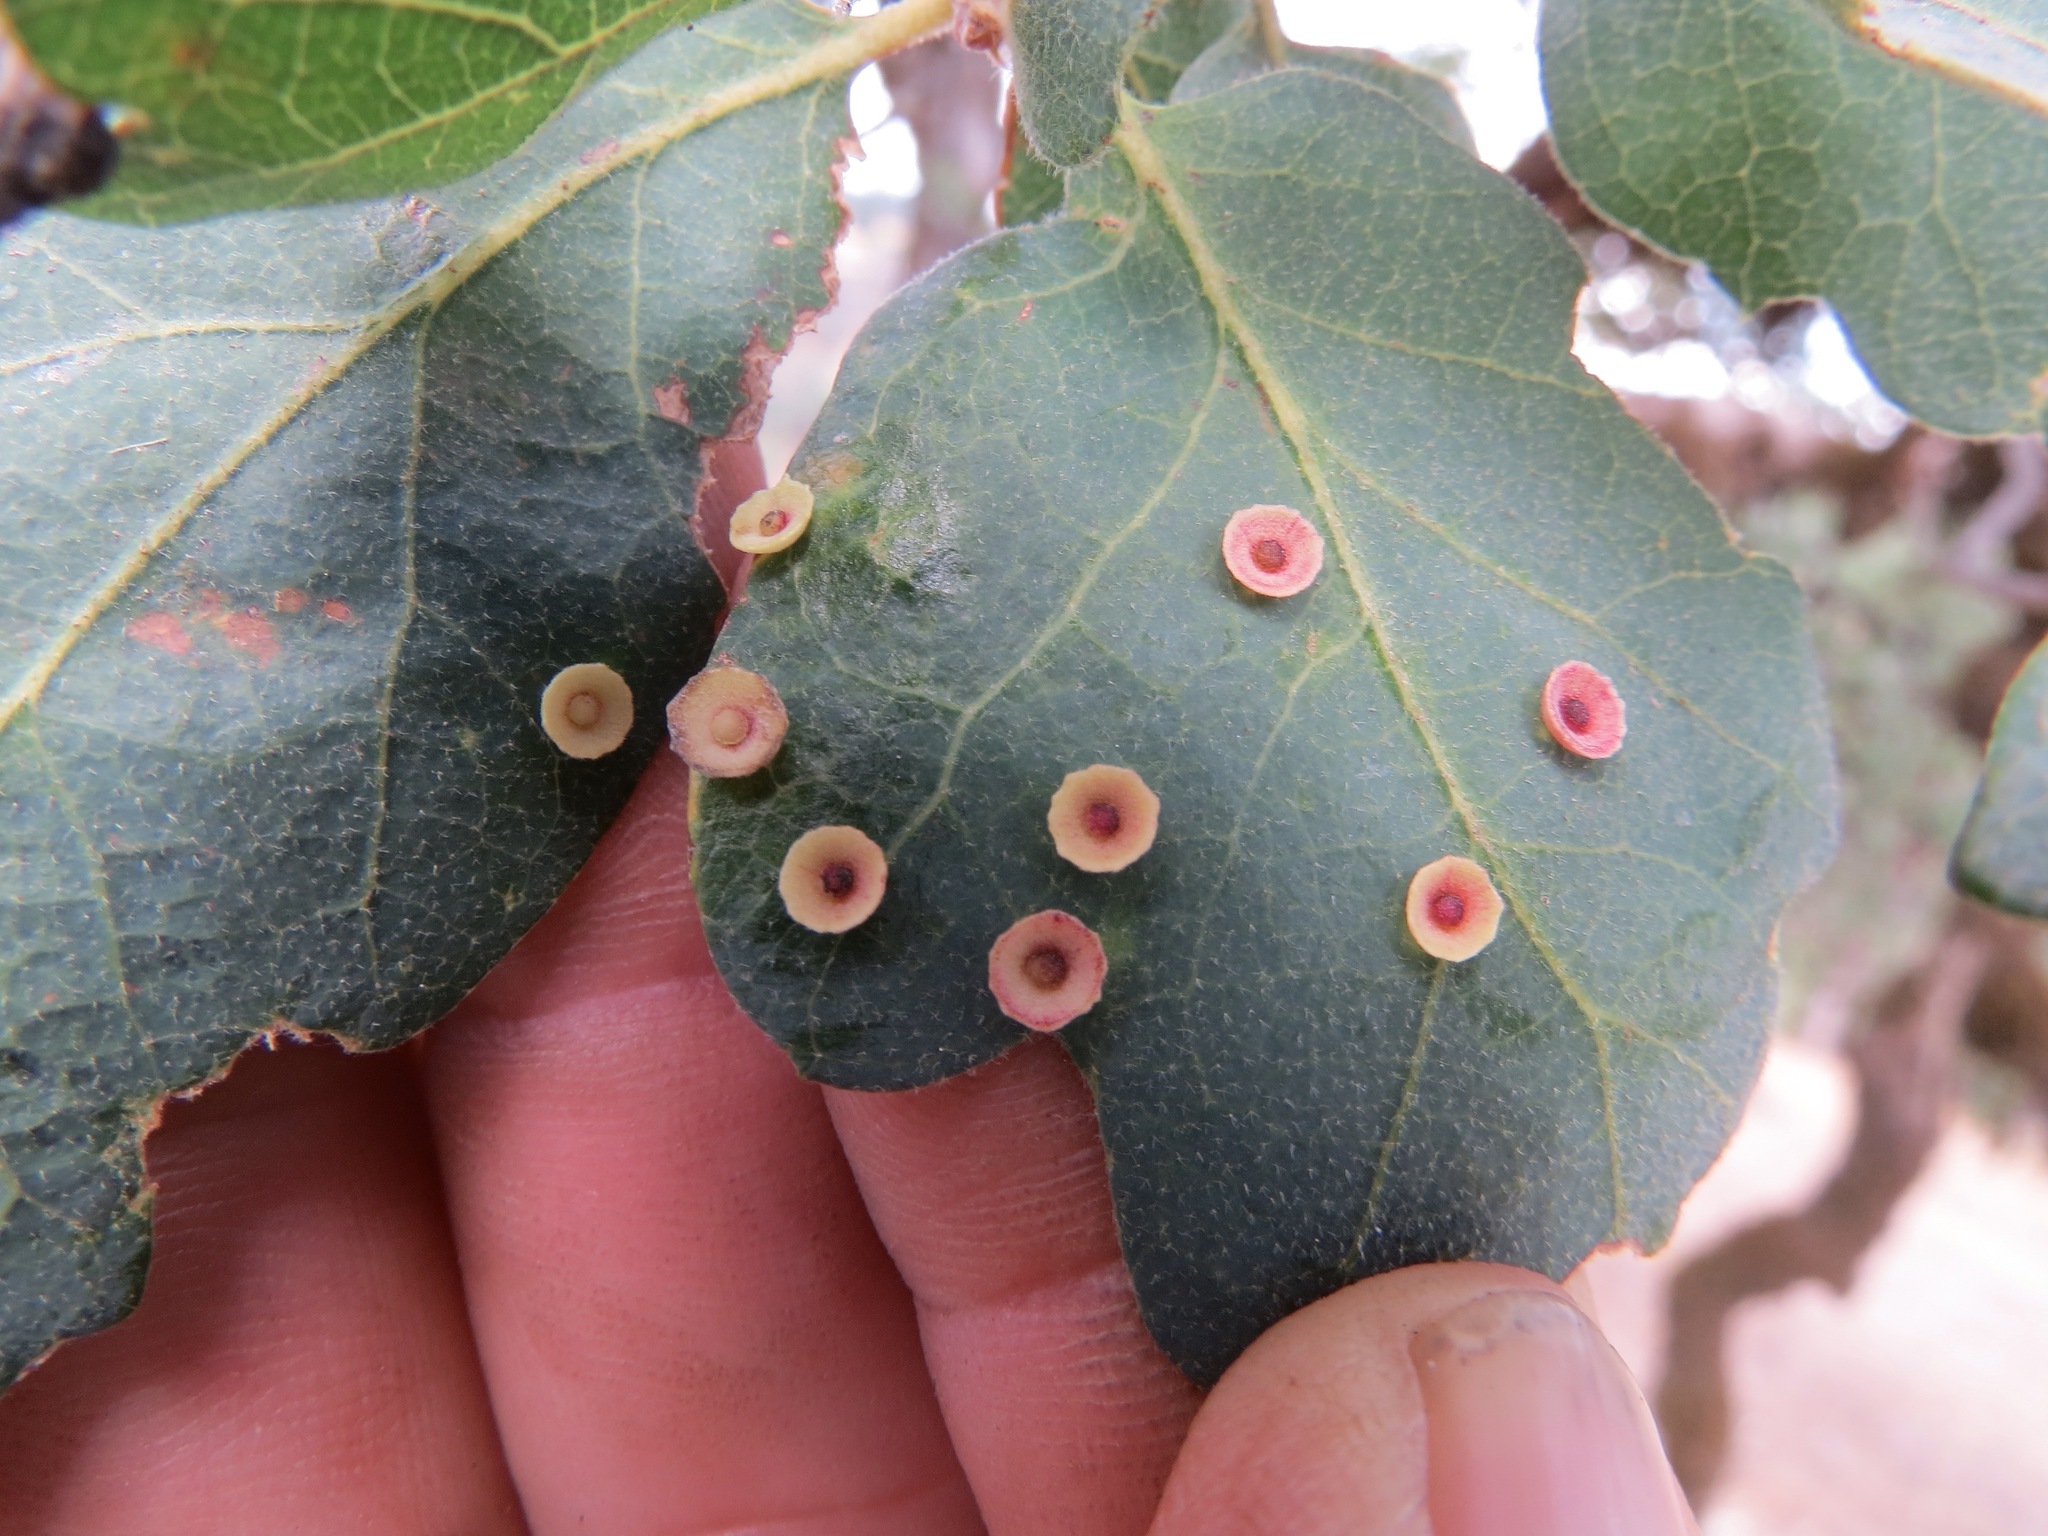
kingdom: Animalia
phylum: Arthropoda
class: Insecta
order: Hymenoptera
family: Cynipidae
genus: Andricus
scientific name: Andricus
